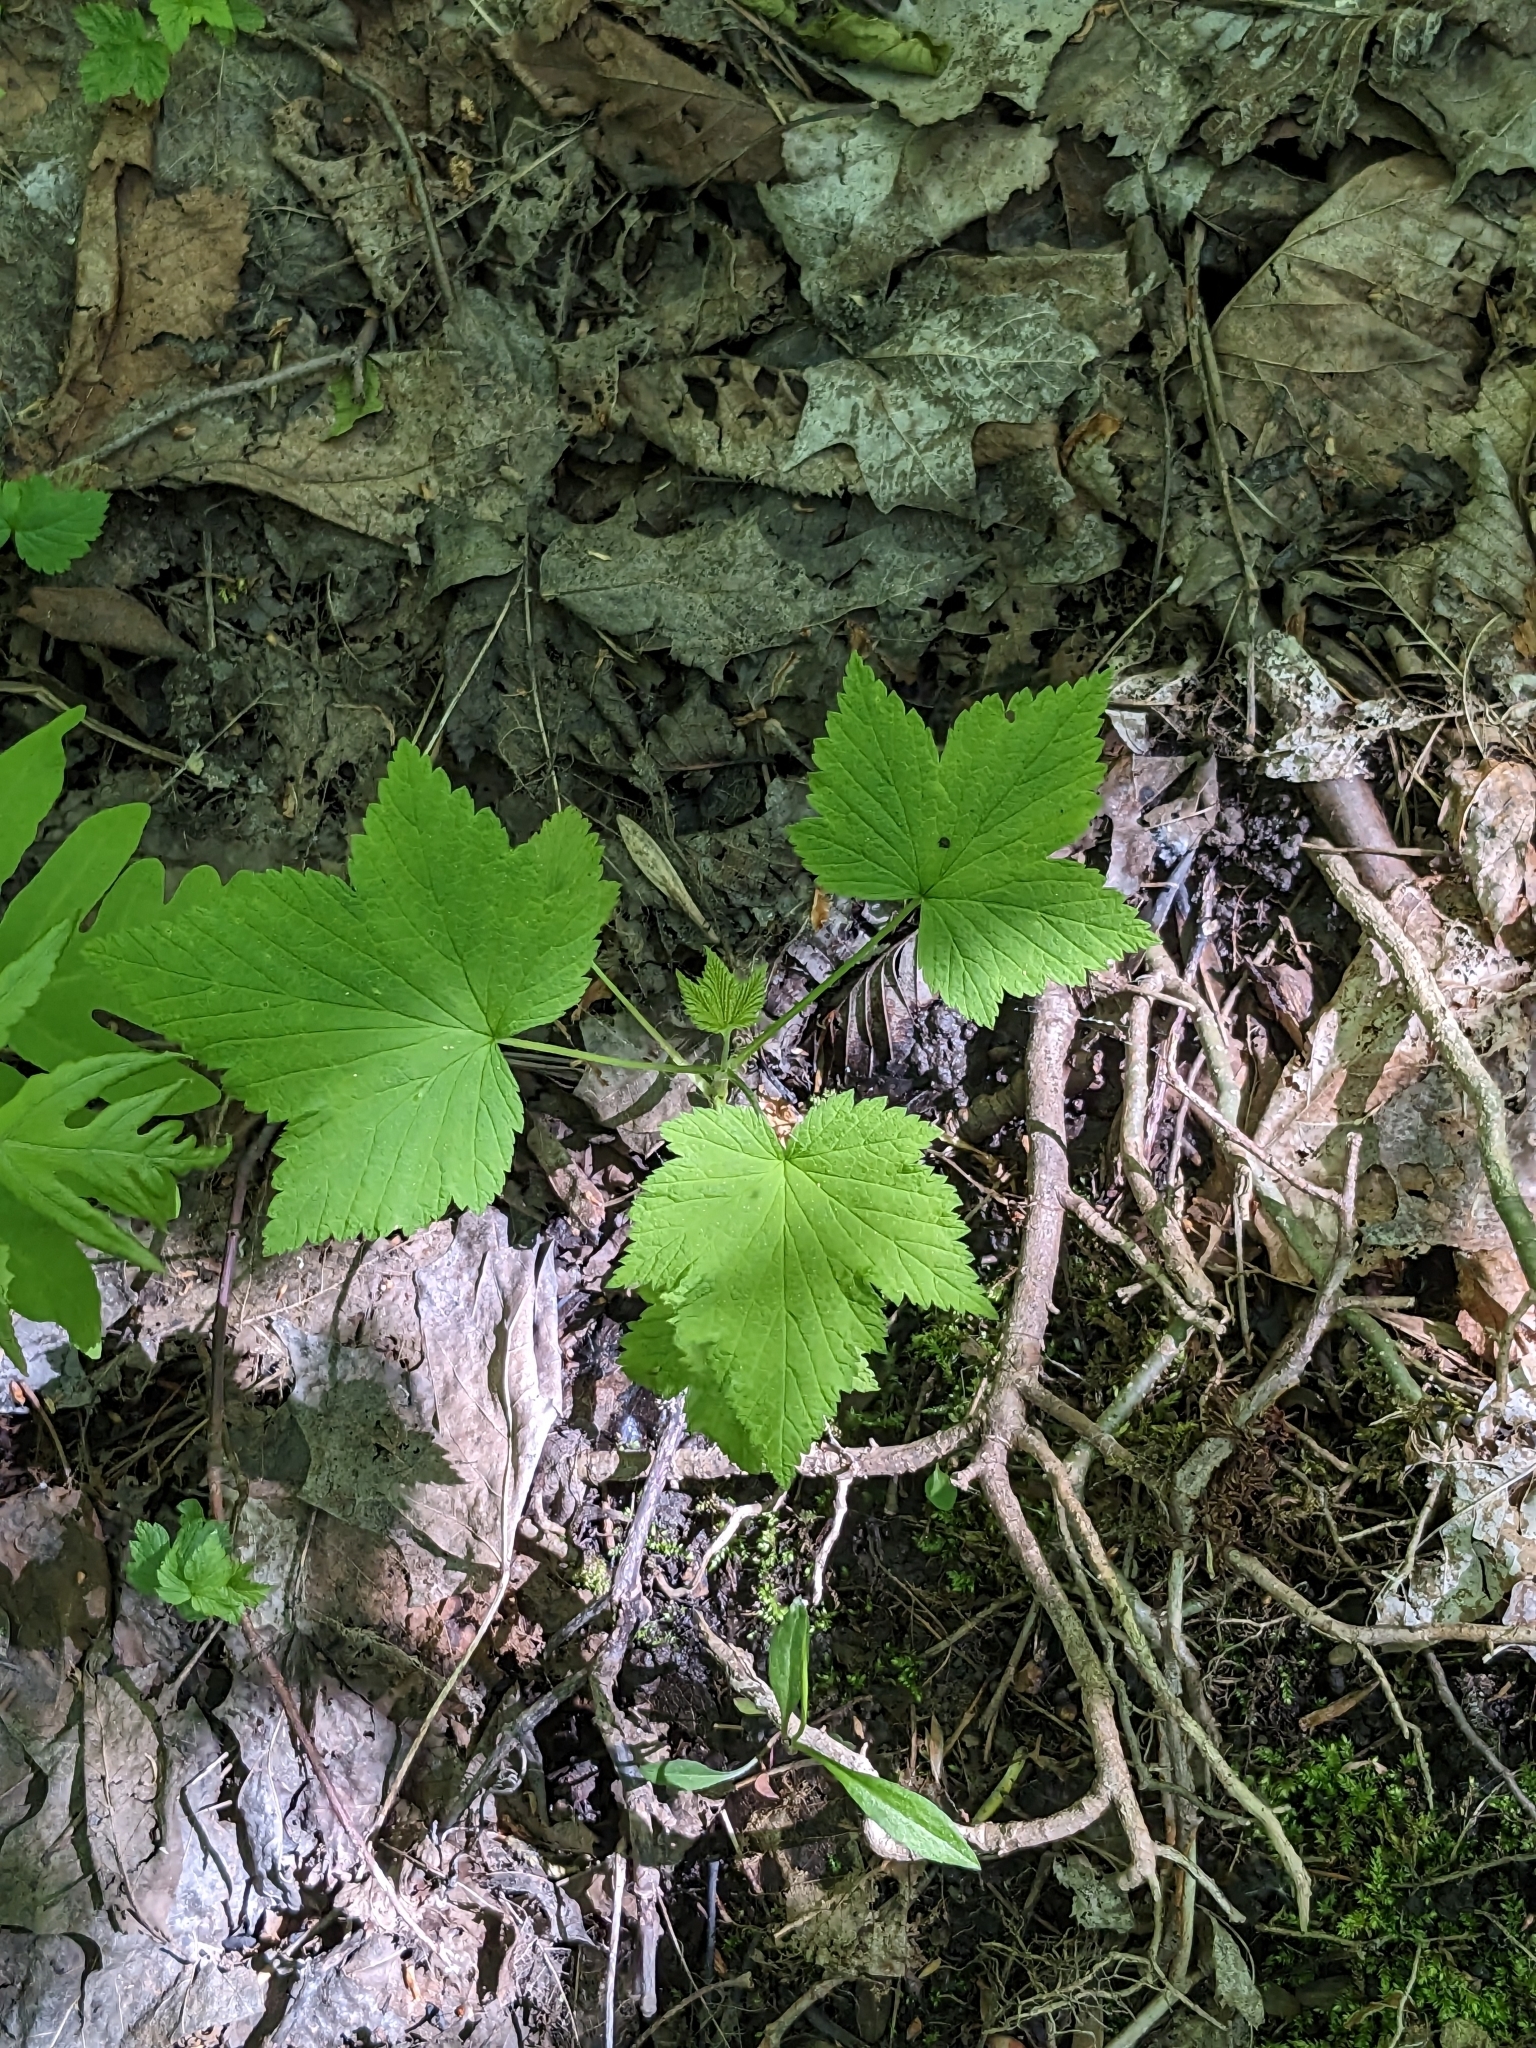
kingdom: Plantae
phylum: Tracheophyta
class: Magnoliopsida
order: Rosales
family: Rosaceae
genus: Rubus
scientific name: Rubus odoratus
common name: Purple-flowered raspberry
